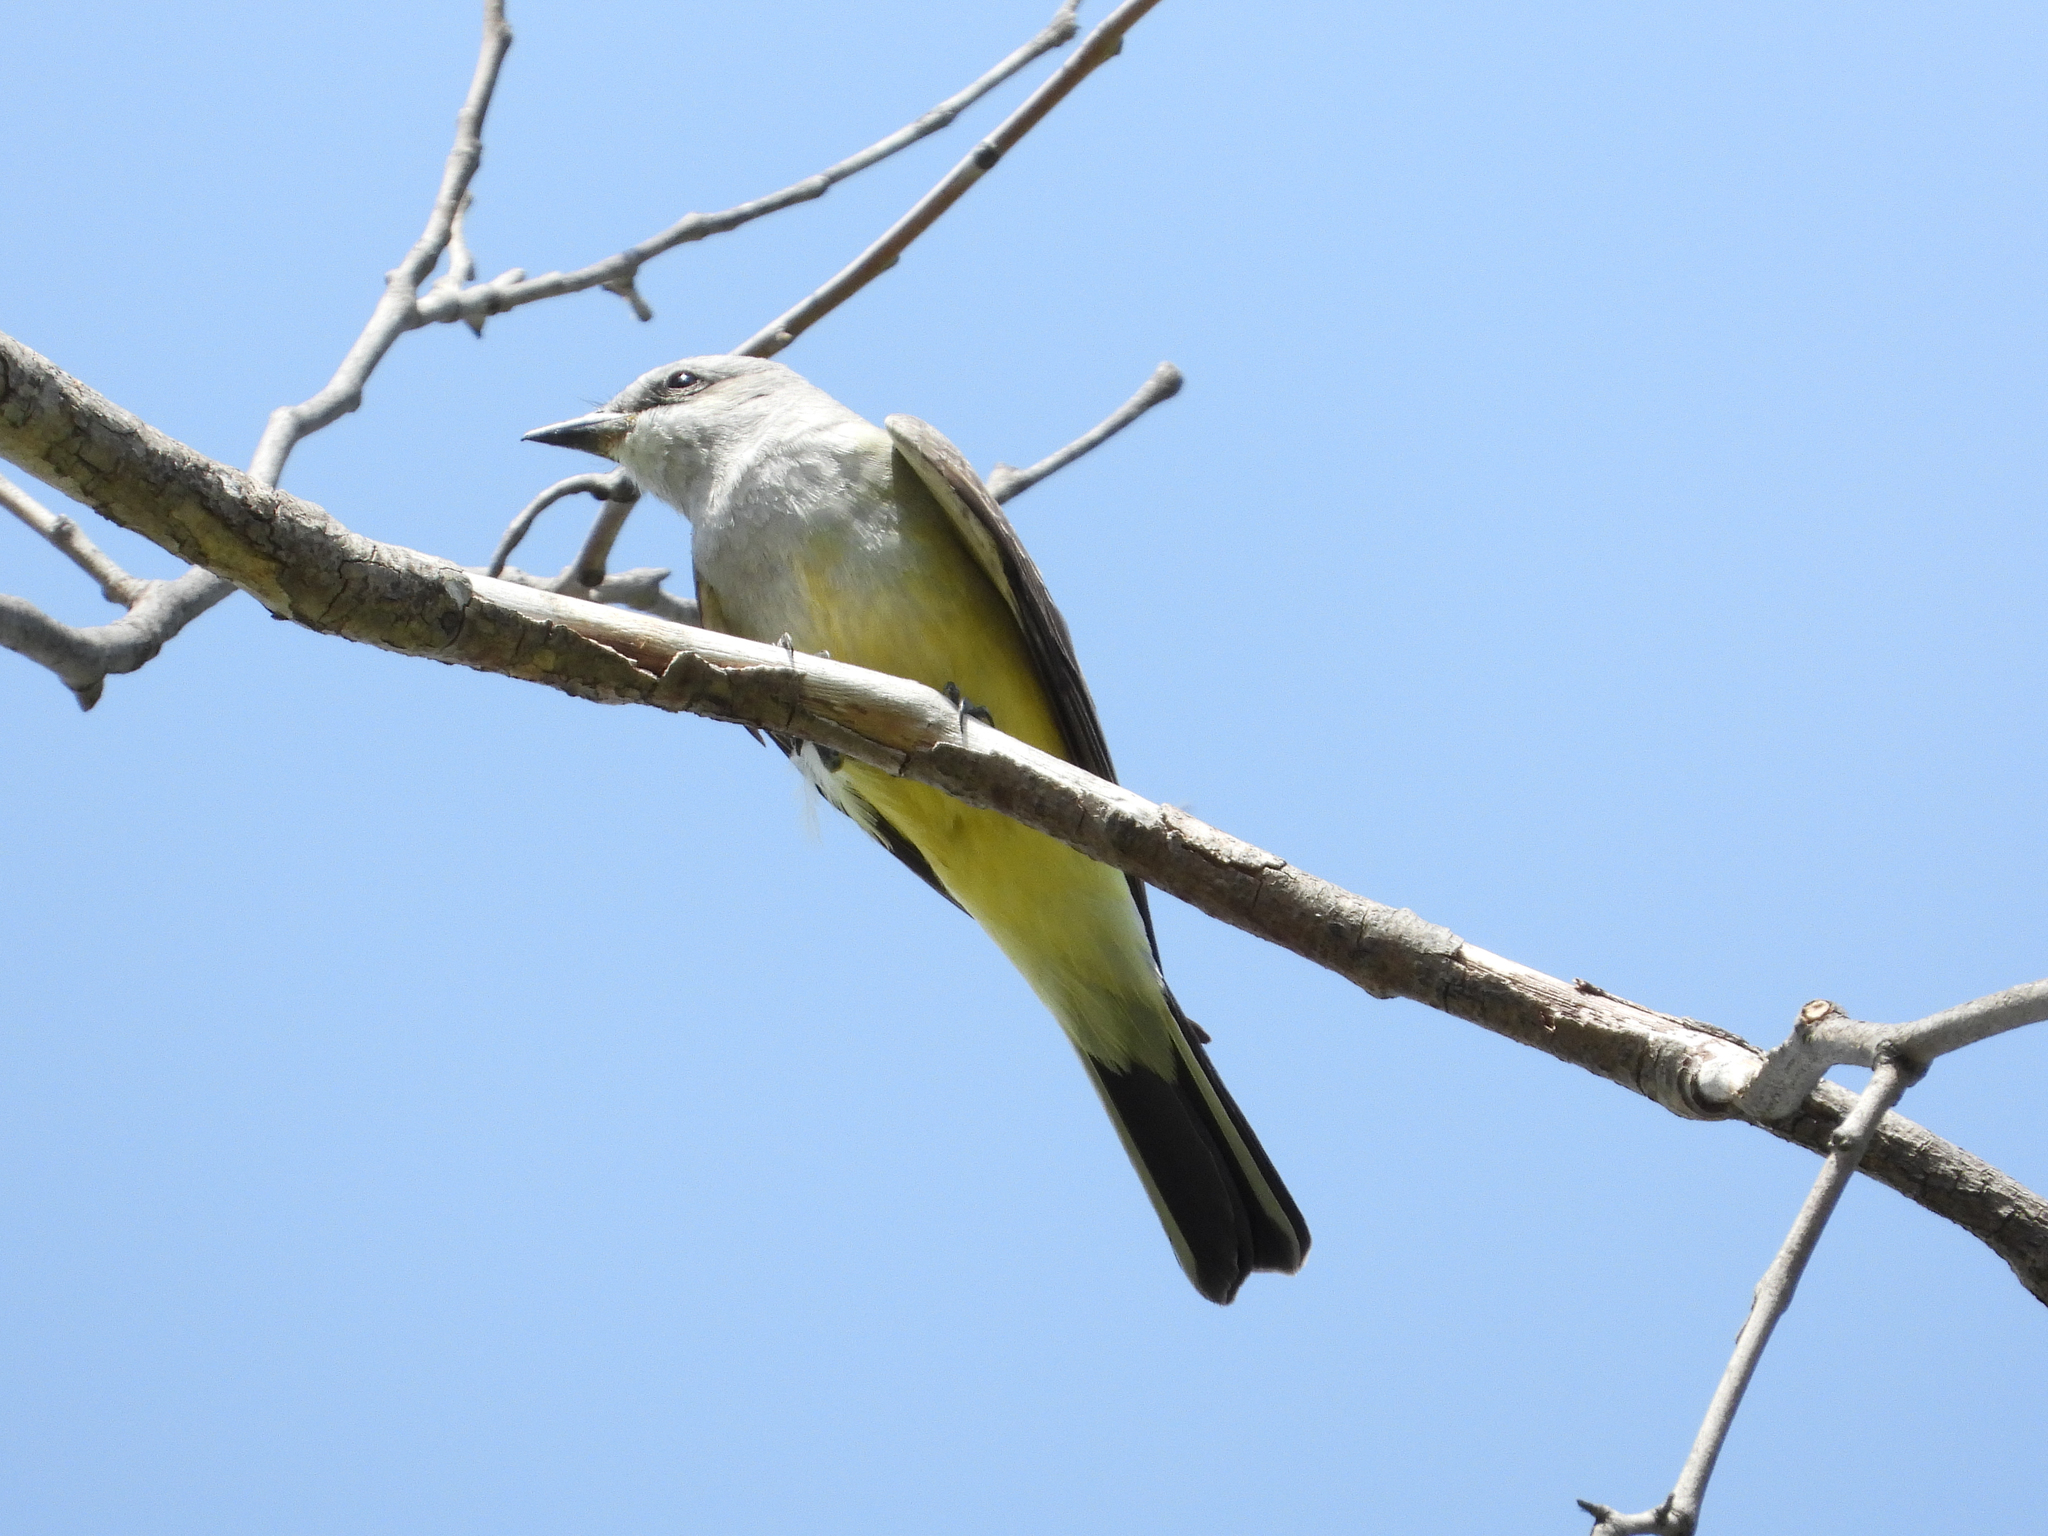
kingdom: Animalia
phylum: Chordata
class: Aves
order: Passeriformes
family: Tyrannidae
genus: Tyrannus
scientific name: Tyrannus verticalis
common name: Western kingbird
